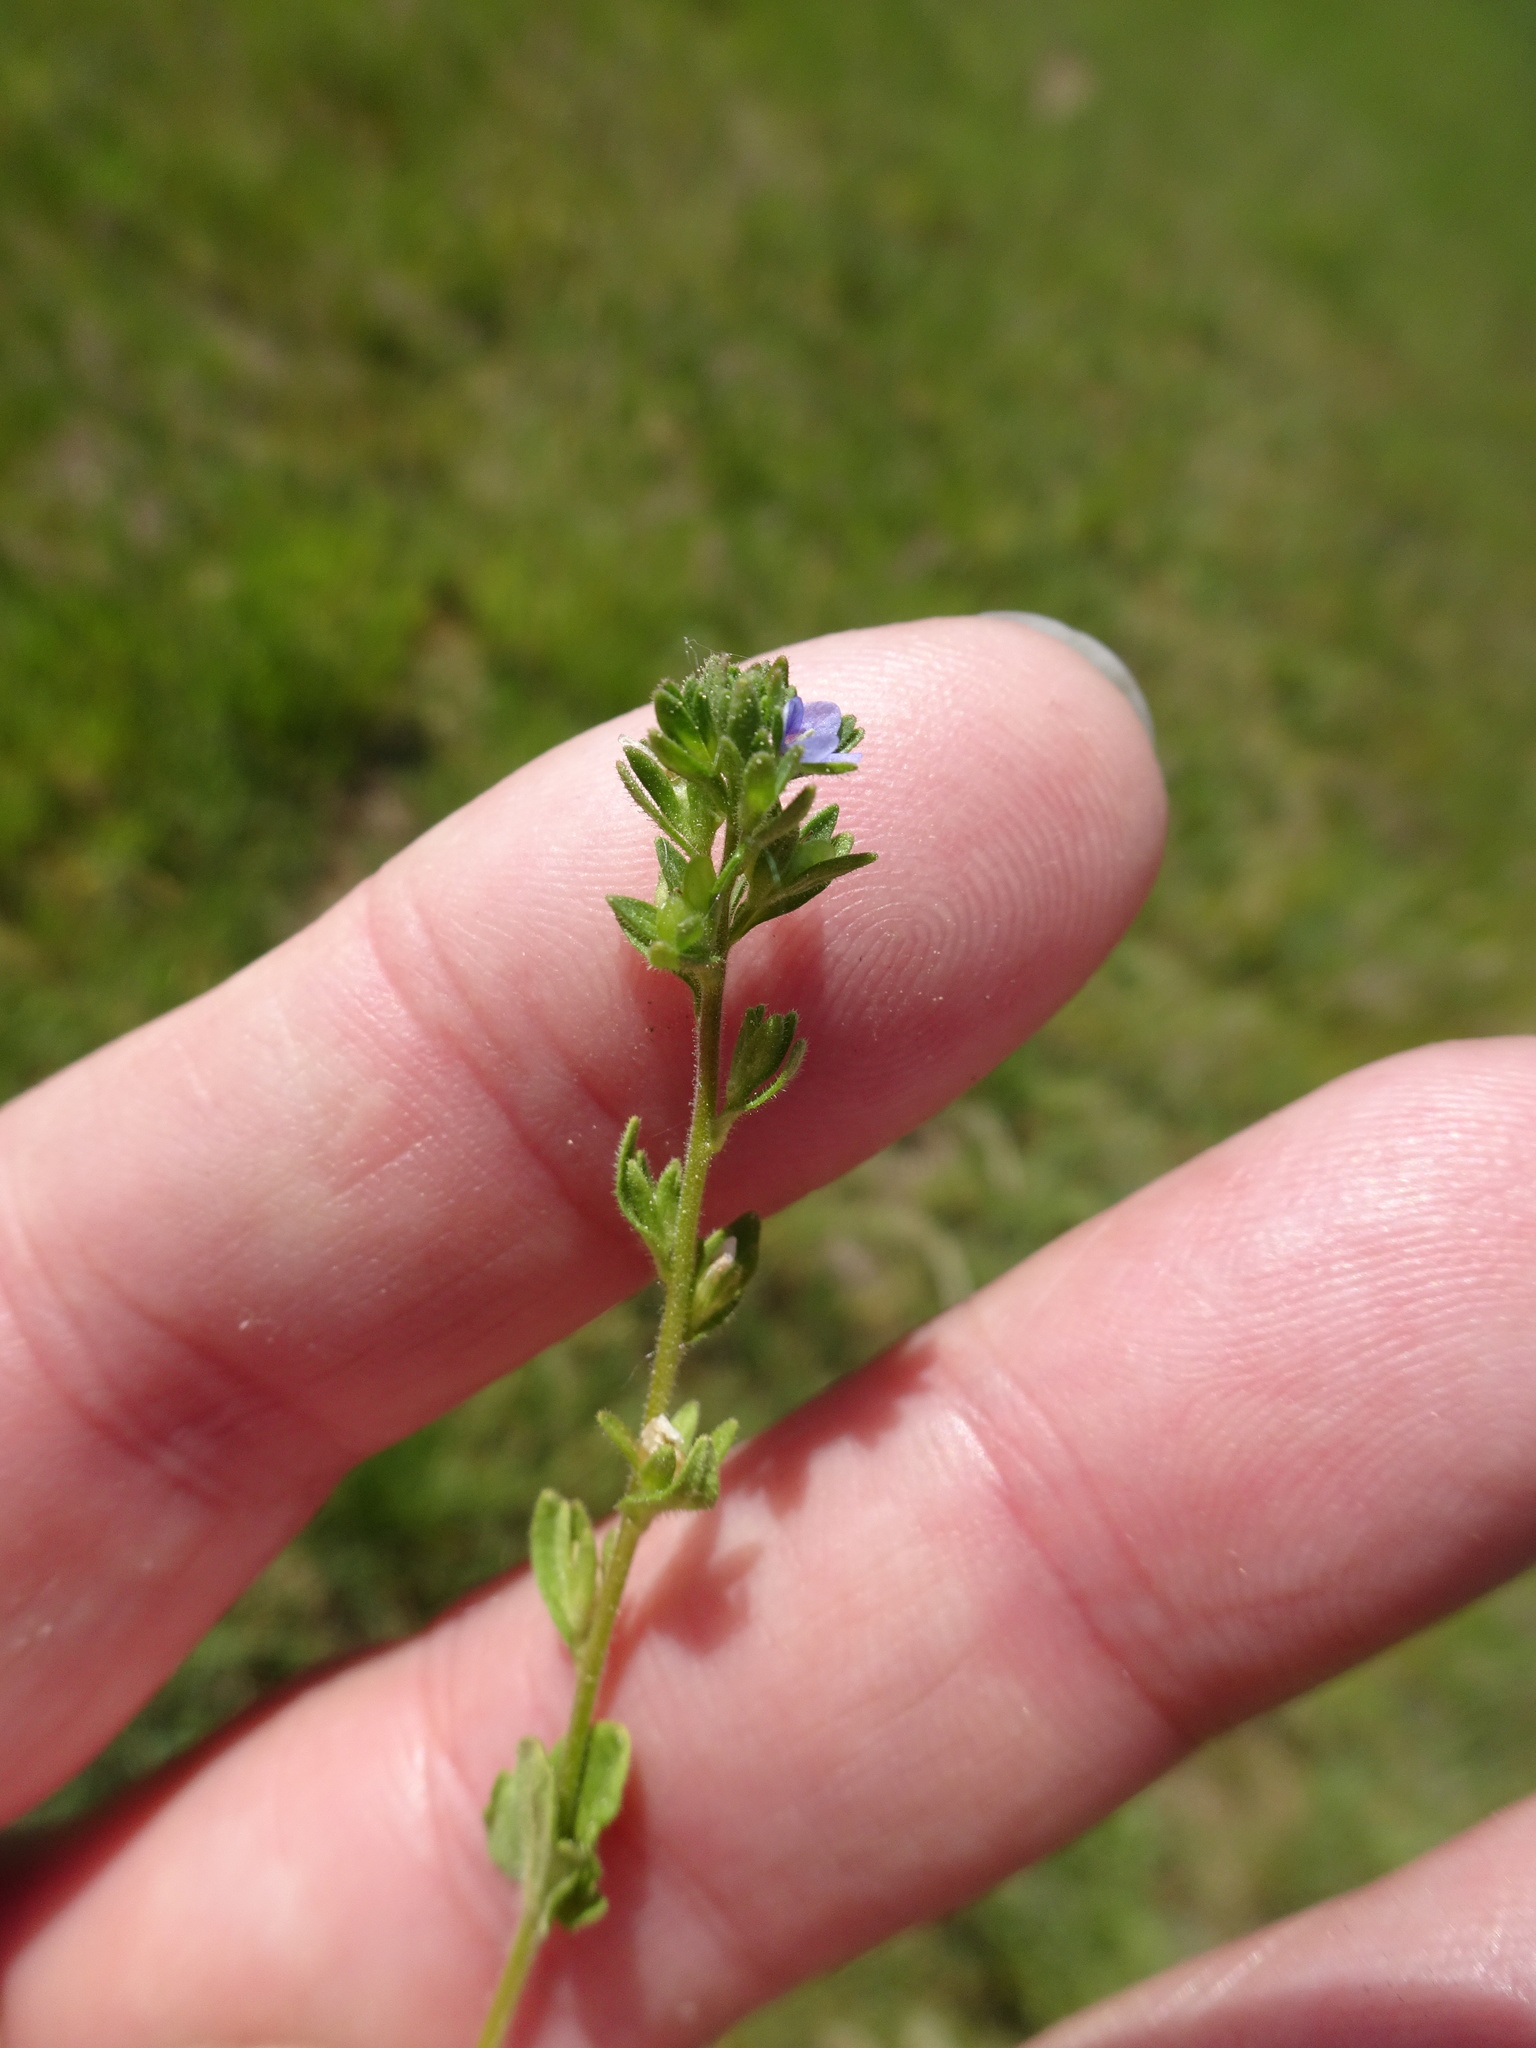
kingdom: Plantae
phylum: Tracheophyta
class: Magnoliopsida
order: Lamiales
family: Plantaginaceae
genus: Veronica
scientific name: Veronica arvensis
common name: Corn speedwell
